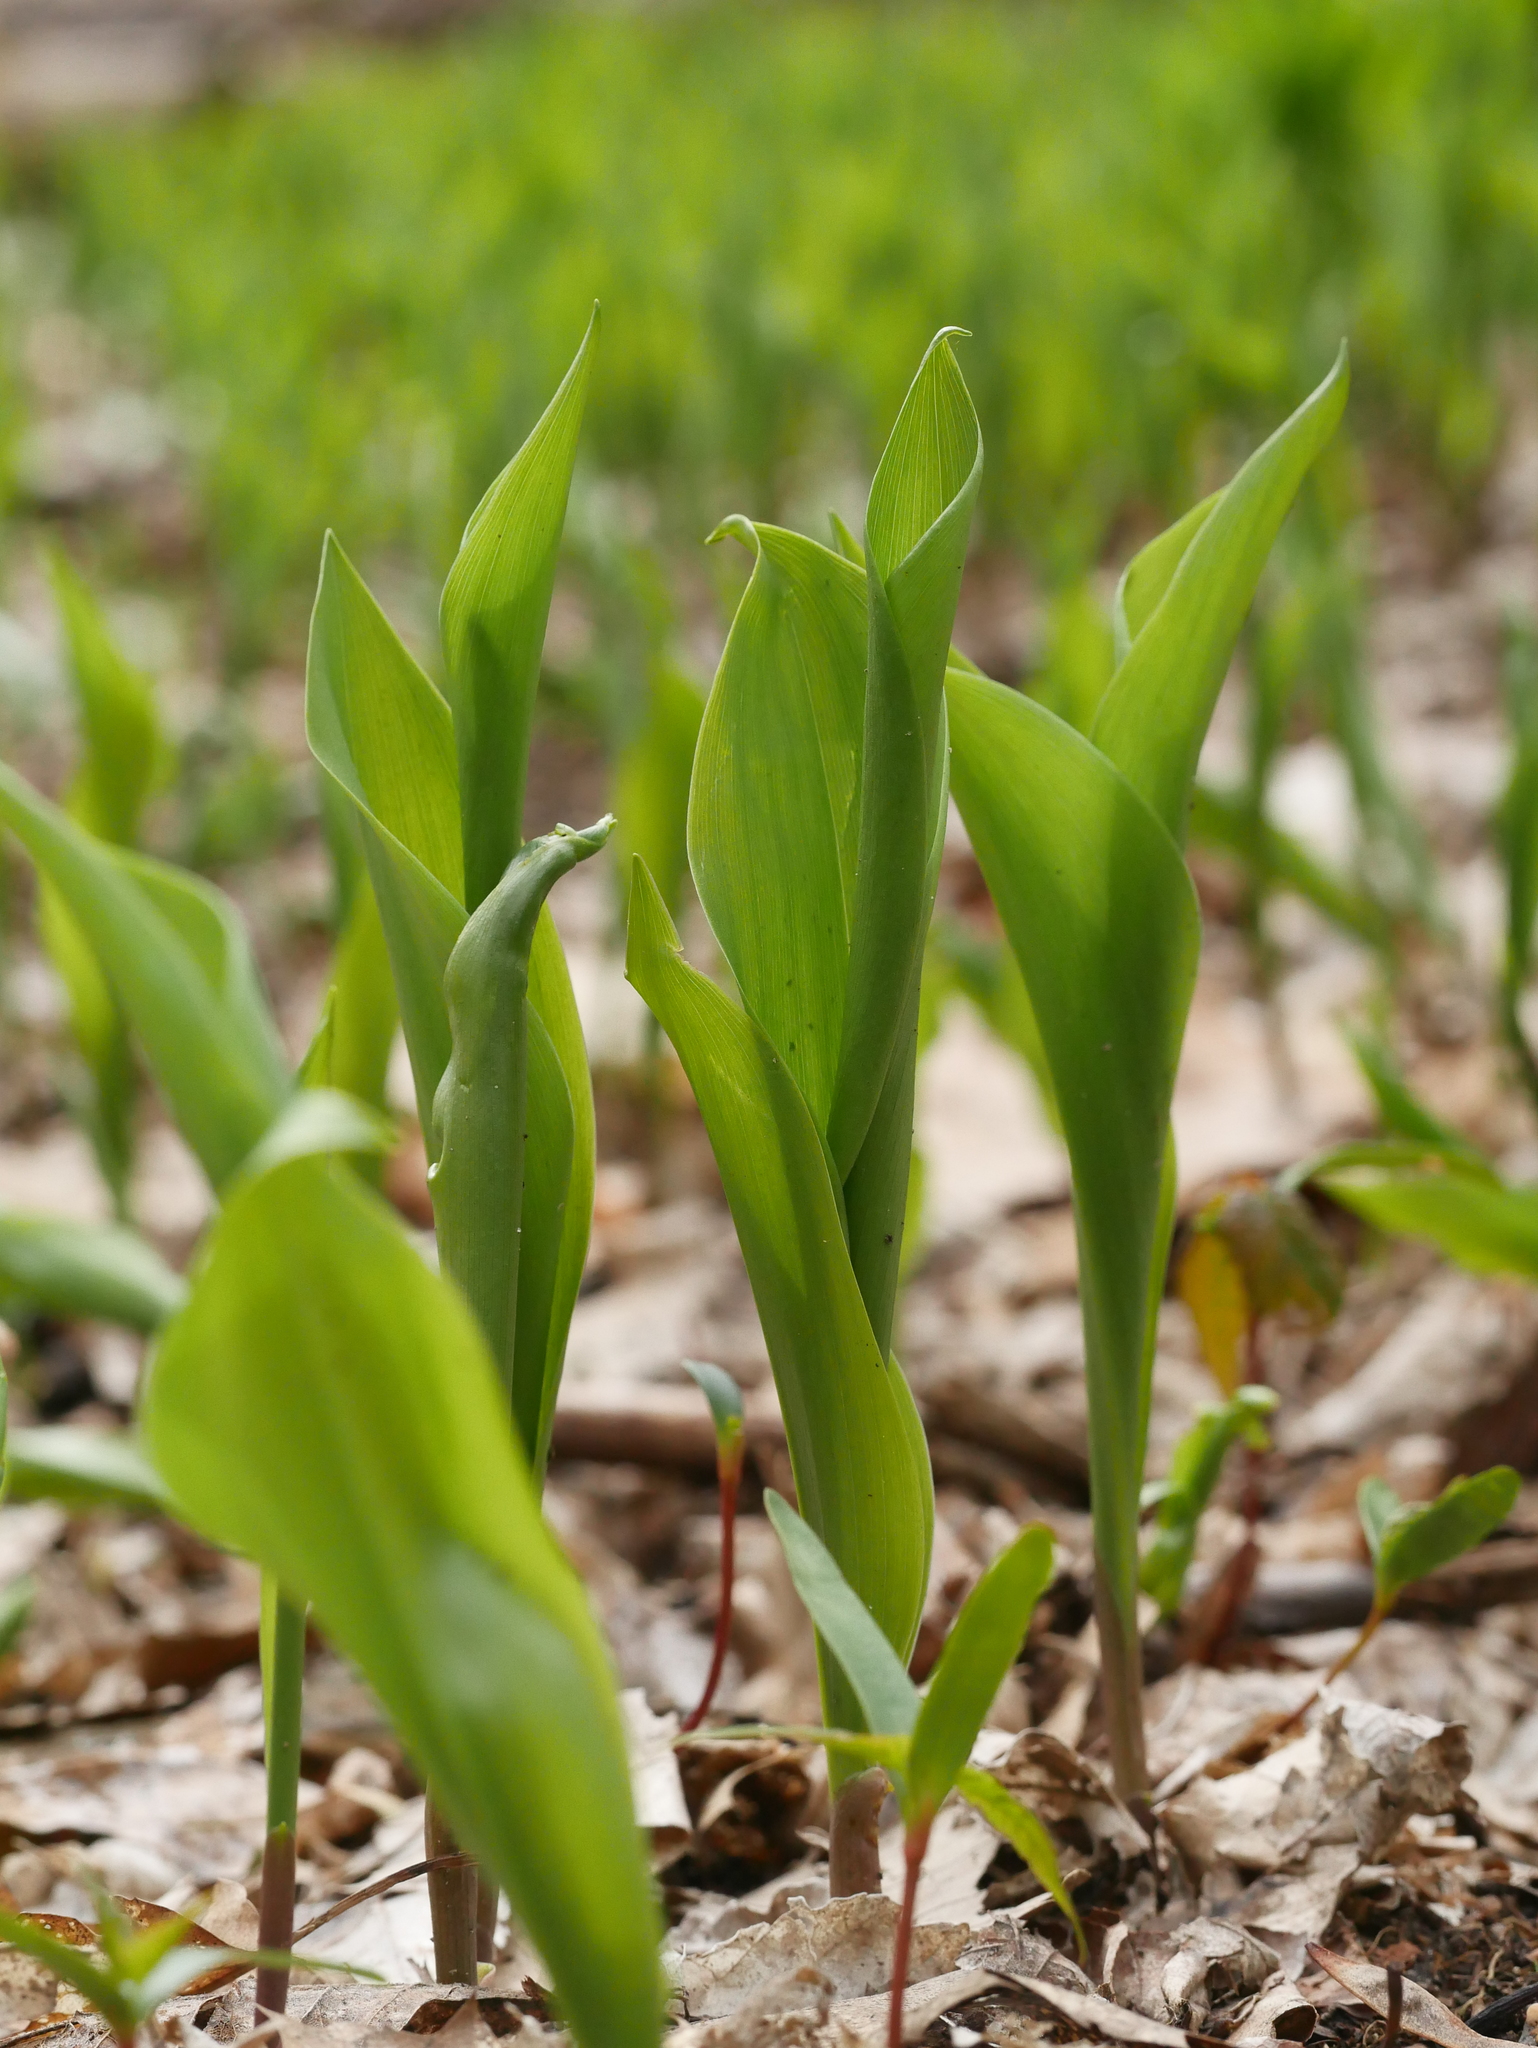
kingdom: Plantae
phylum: Tracheophyta
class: Liliopsida
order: Asparagales
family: Asparagaceae
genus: Convallaria
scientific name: Convallaria majalis
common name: Lily-of-the-valley
